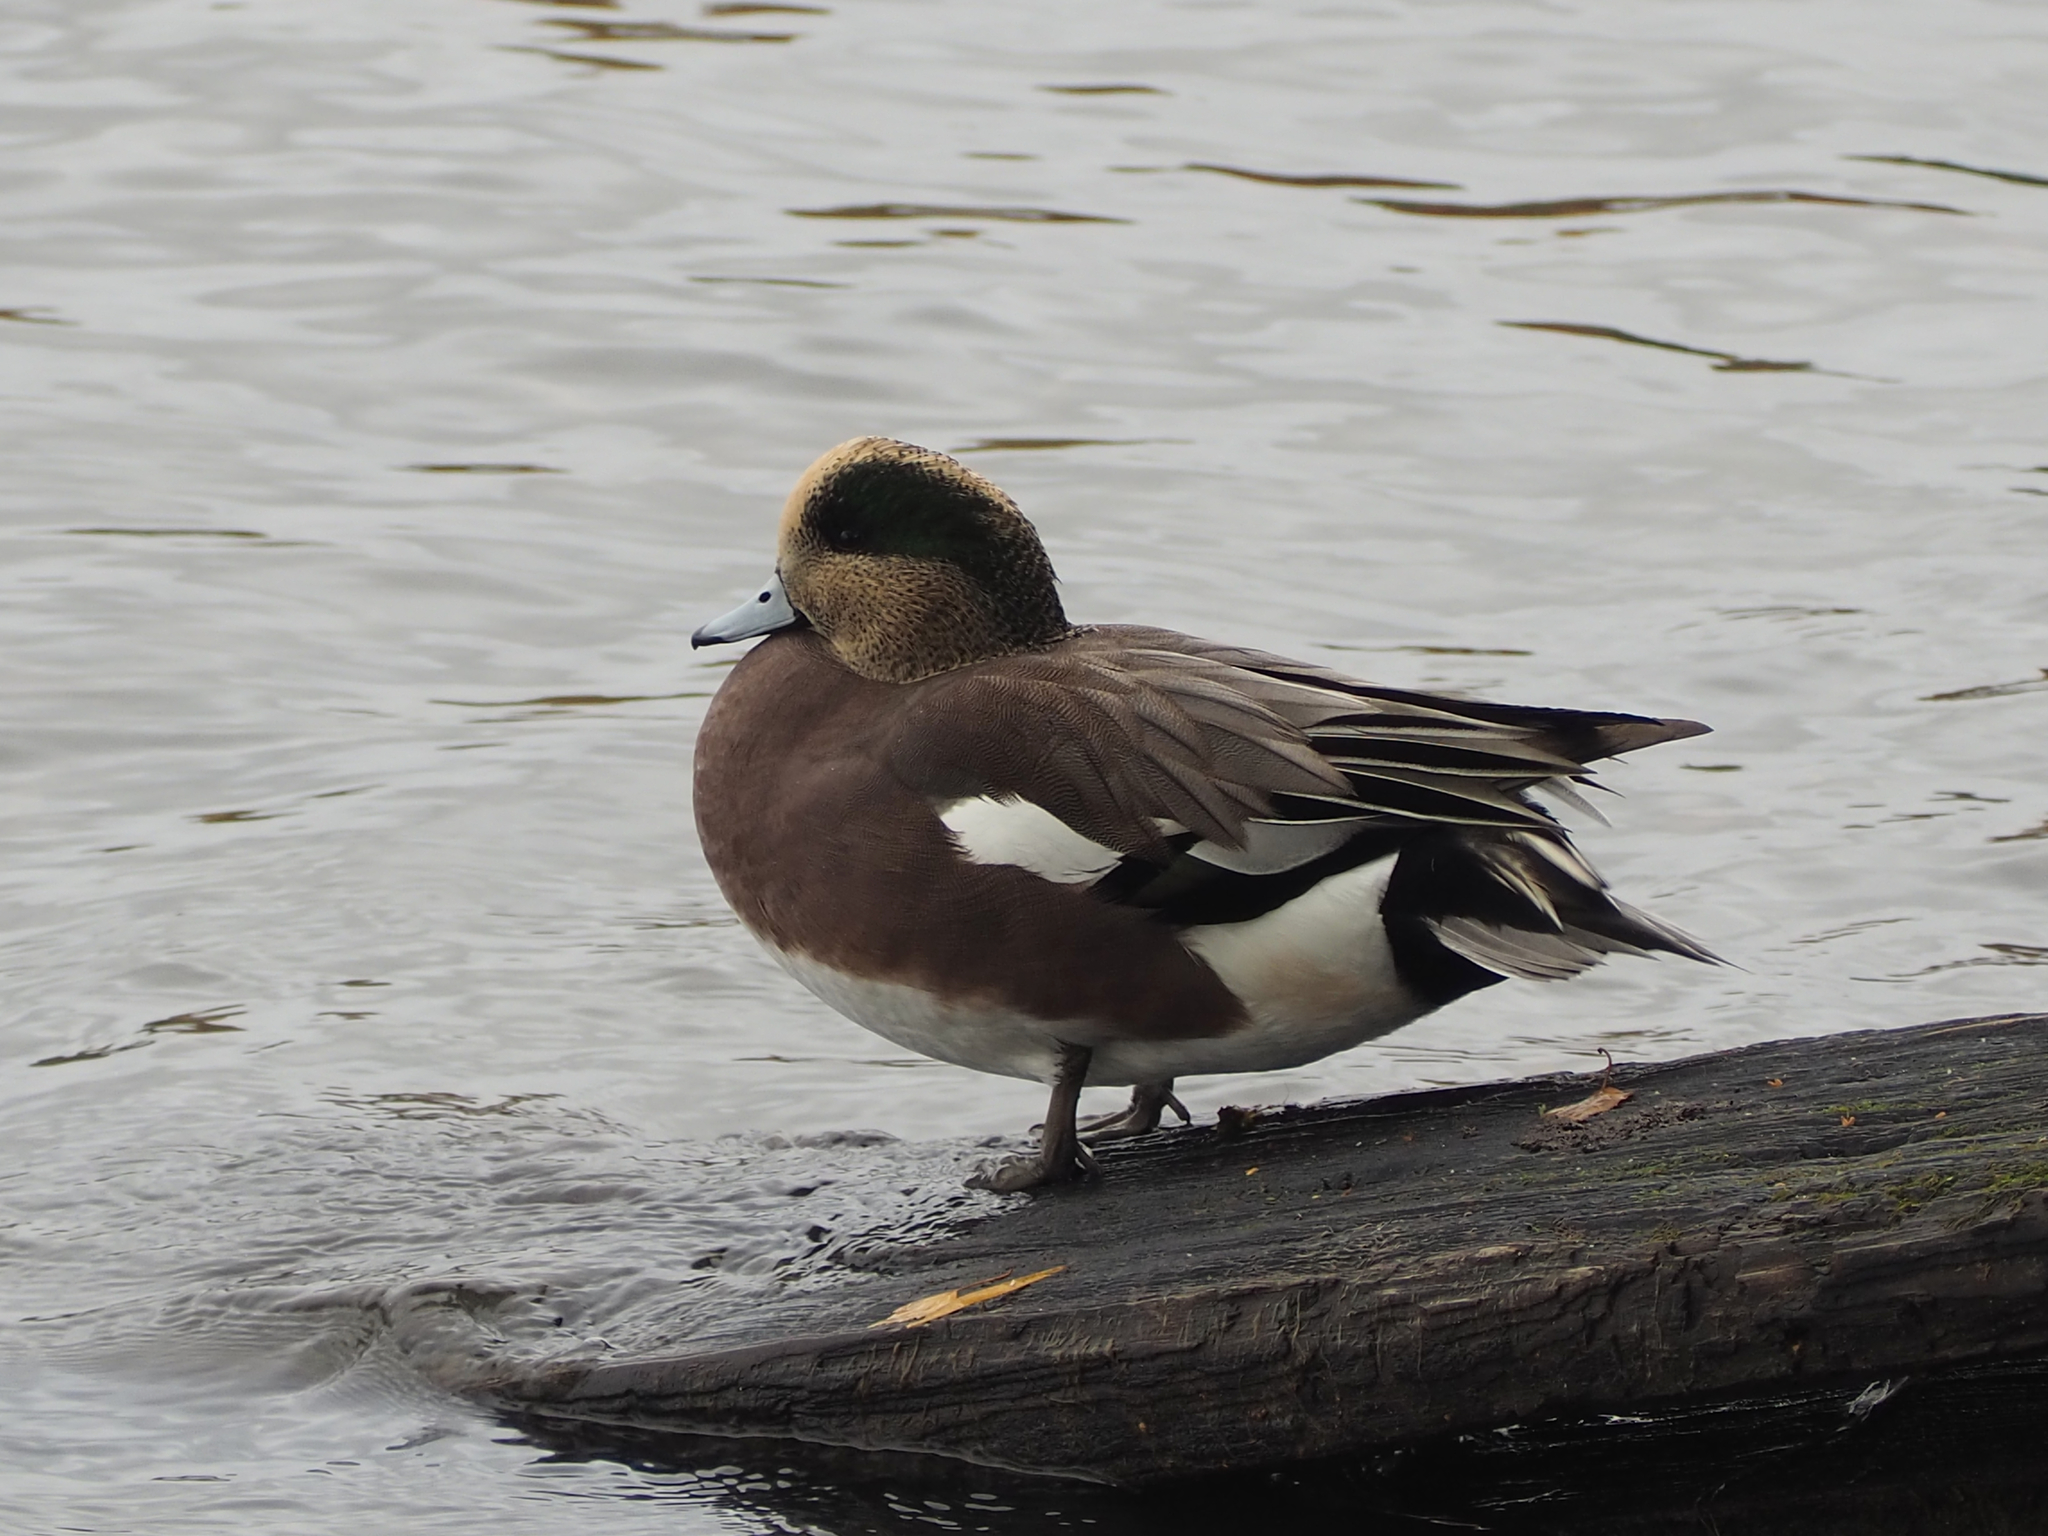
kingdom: Animalia
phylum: Chordata
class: Aves
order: Anseriformes
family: Anatidae
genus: Mareca
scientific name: Mareca americana
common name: American wigeon
